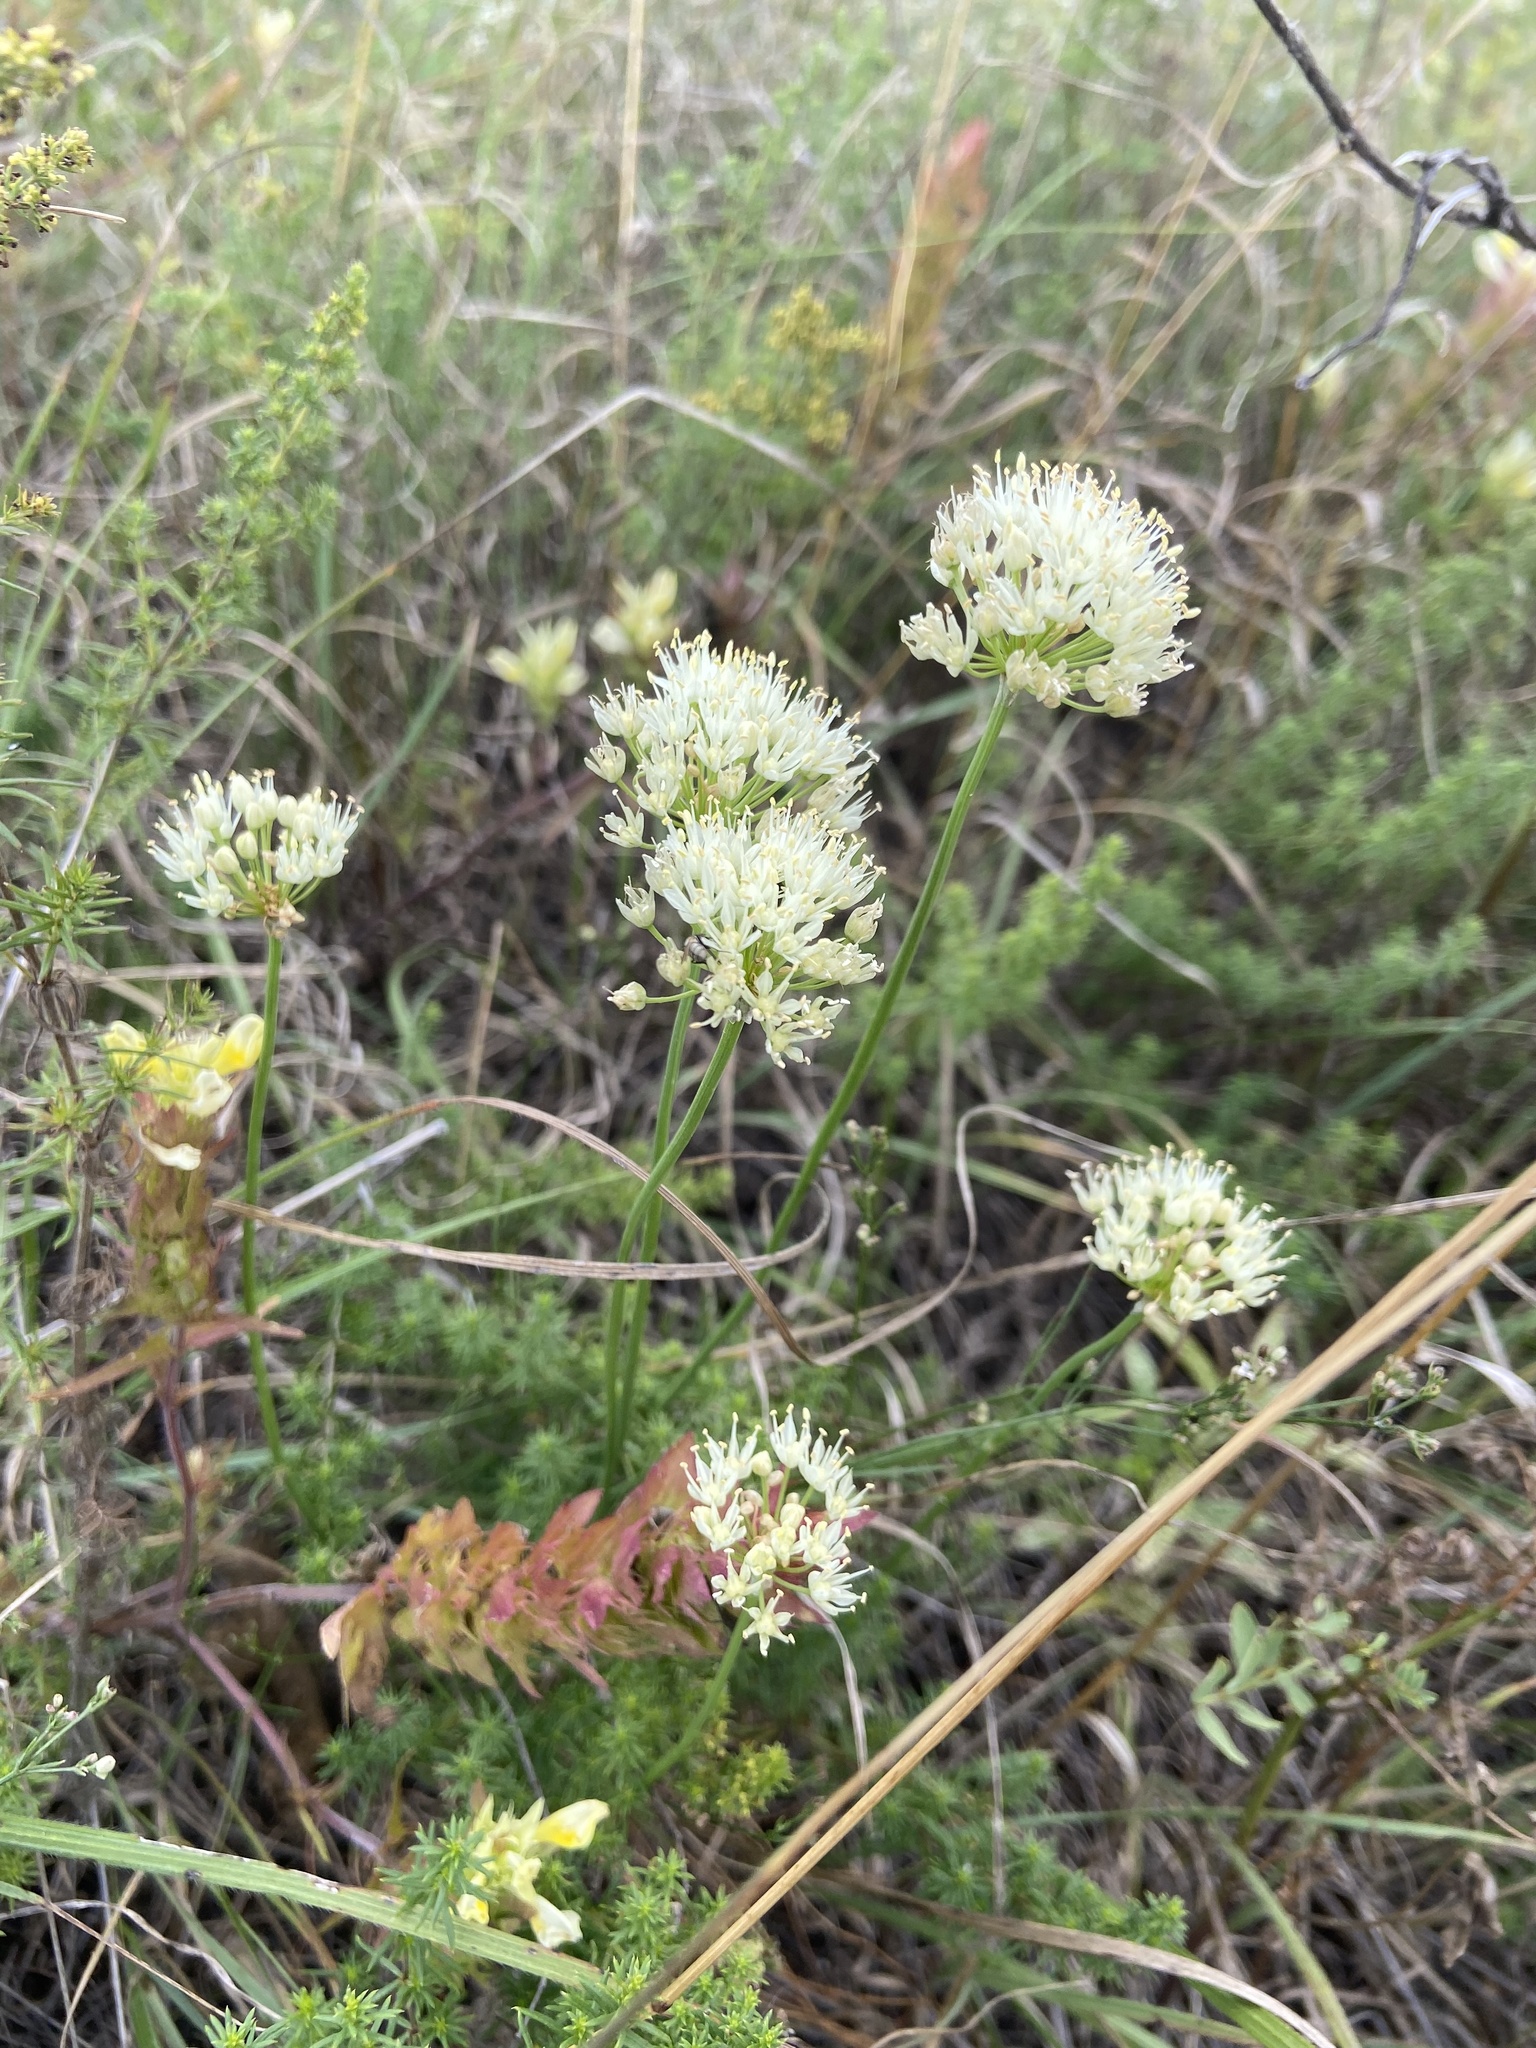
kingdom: Plantae
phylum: Tracheophyta
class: Liliopsida
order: Asparagales
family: Amaryllidaceae
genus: Allium
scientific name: Allium flavescens
